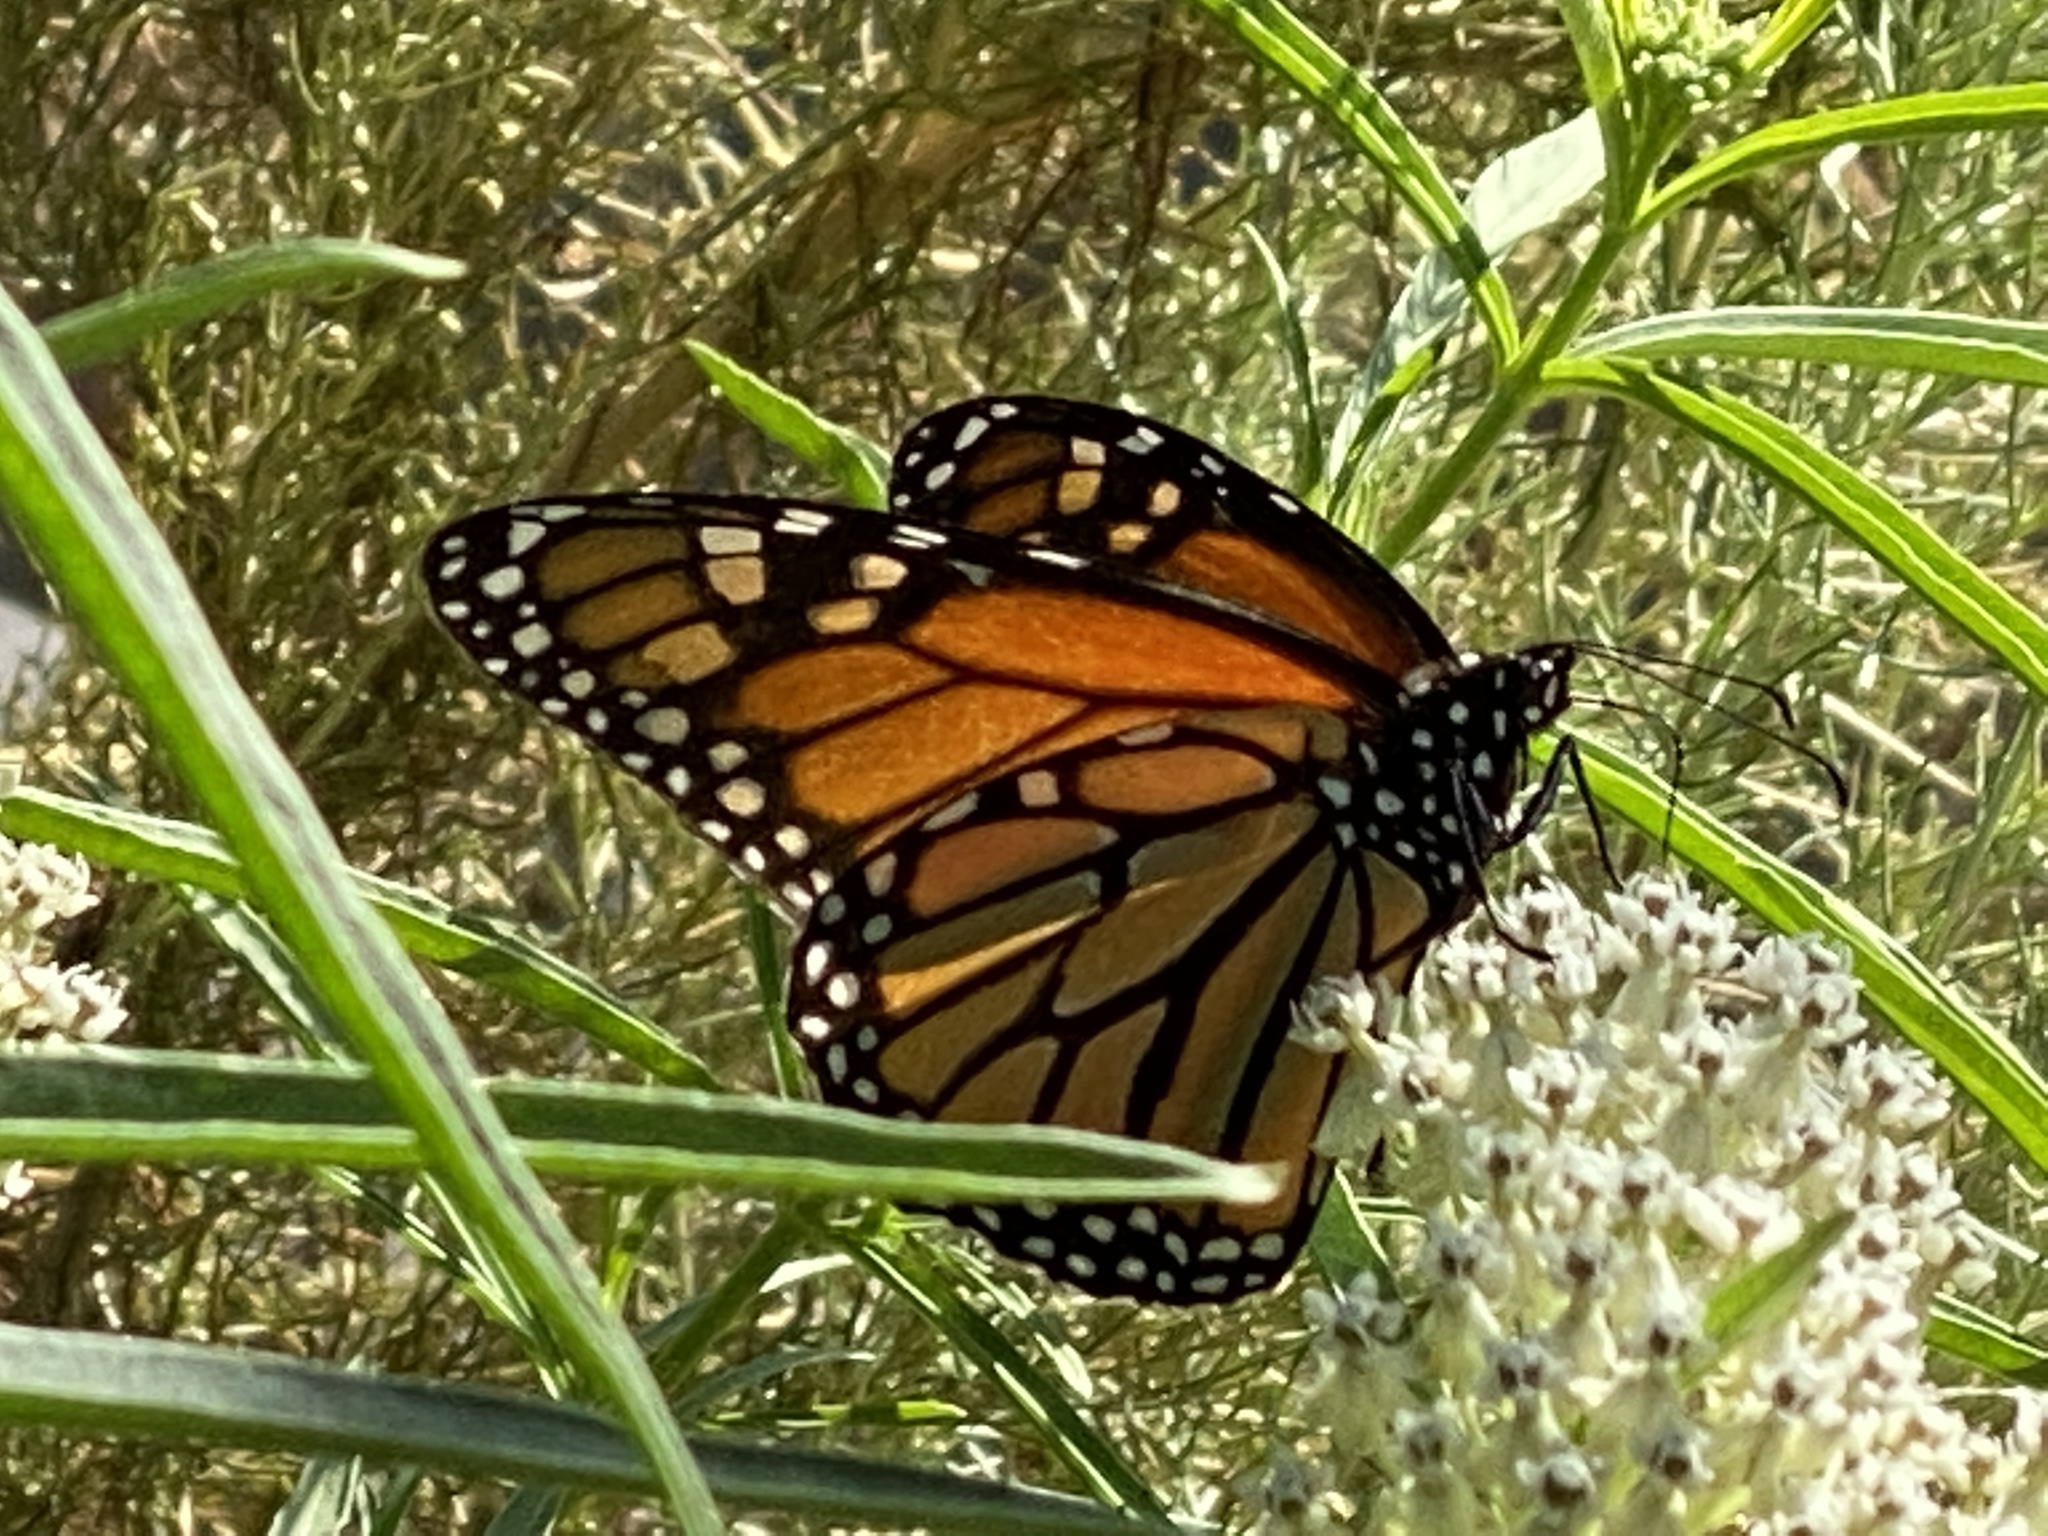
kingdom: Animalia
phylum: Arthropoda
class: Insecta
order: Lepidoptera
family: Nymphalidae
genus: Danaus
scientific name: Danaus plexippus
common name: Monarch
